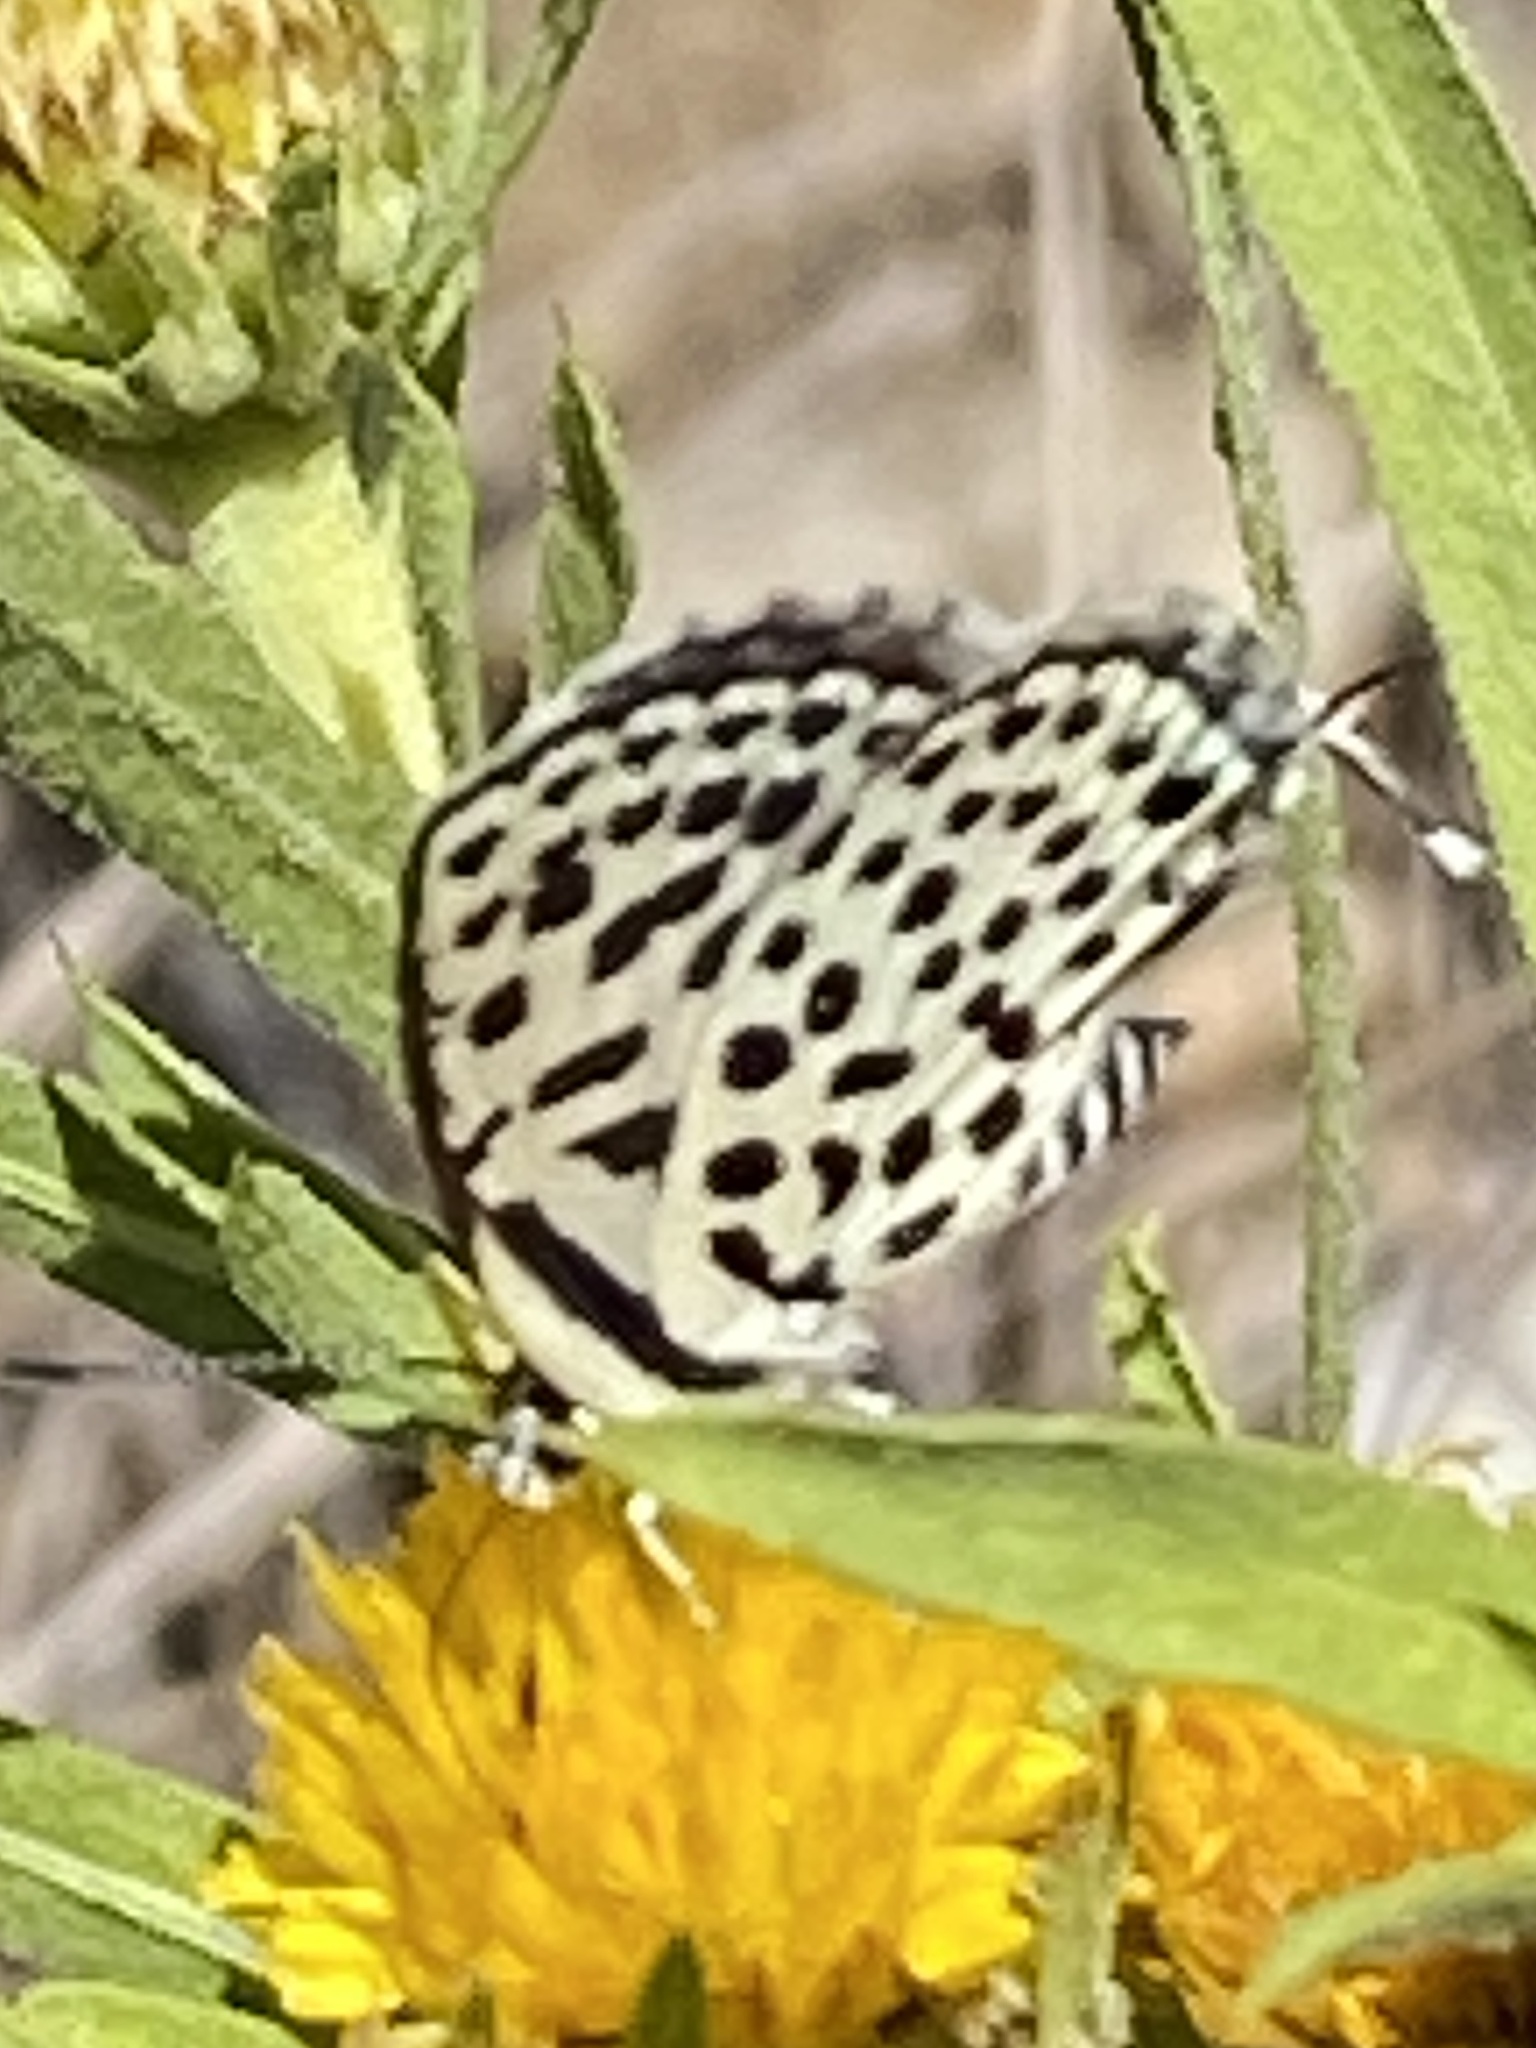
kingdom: Animalia
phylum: Arthropoda
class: Insecta
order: Lepidoptera
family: Lycaenidae
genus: Tarucus
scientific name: Tarucus sybaris
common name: Dotted blue
